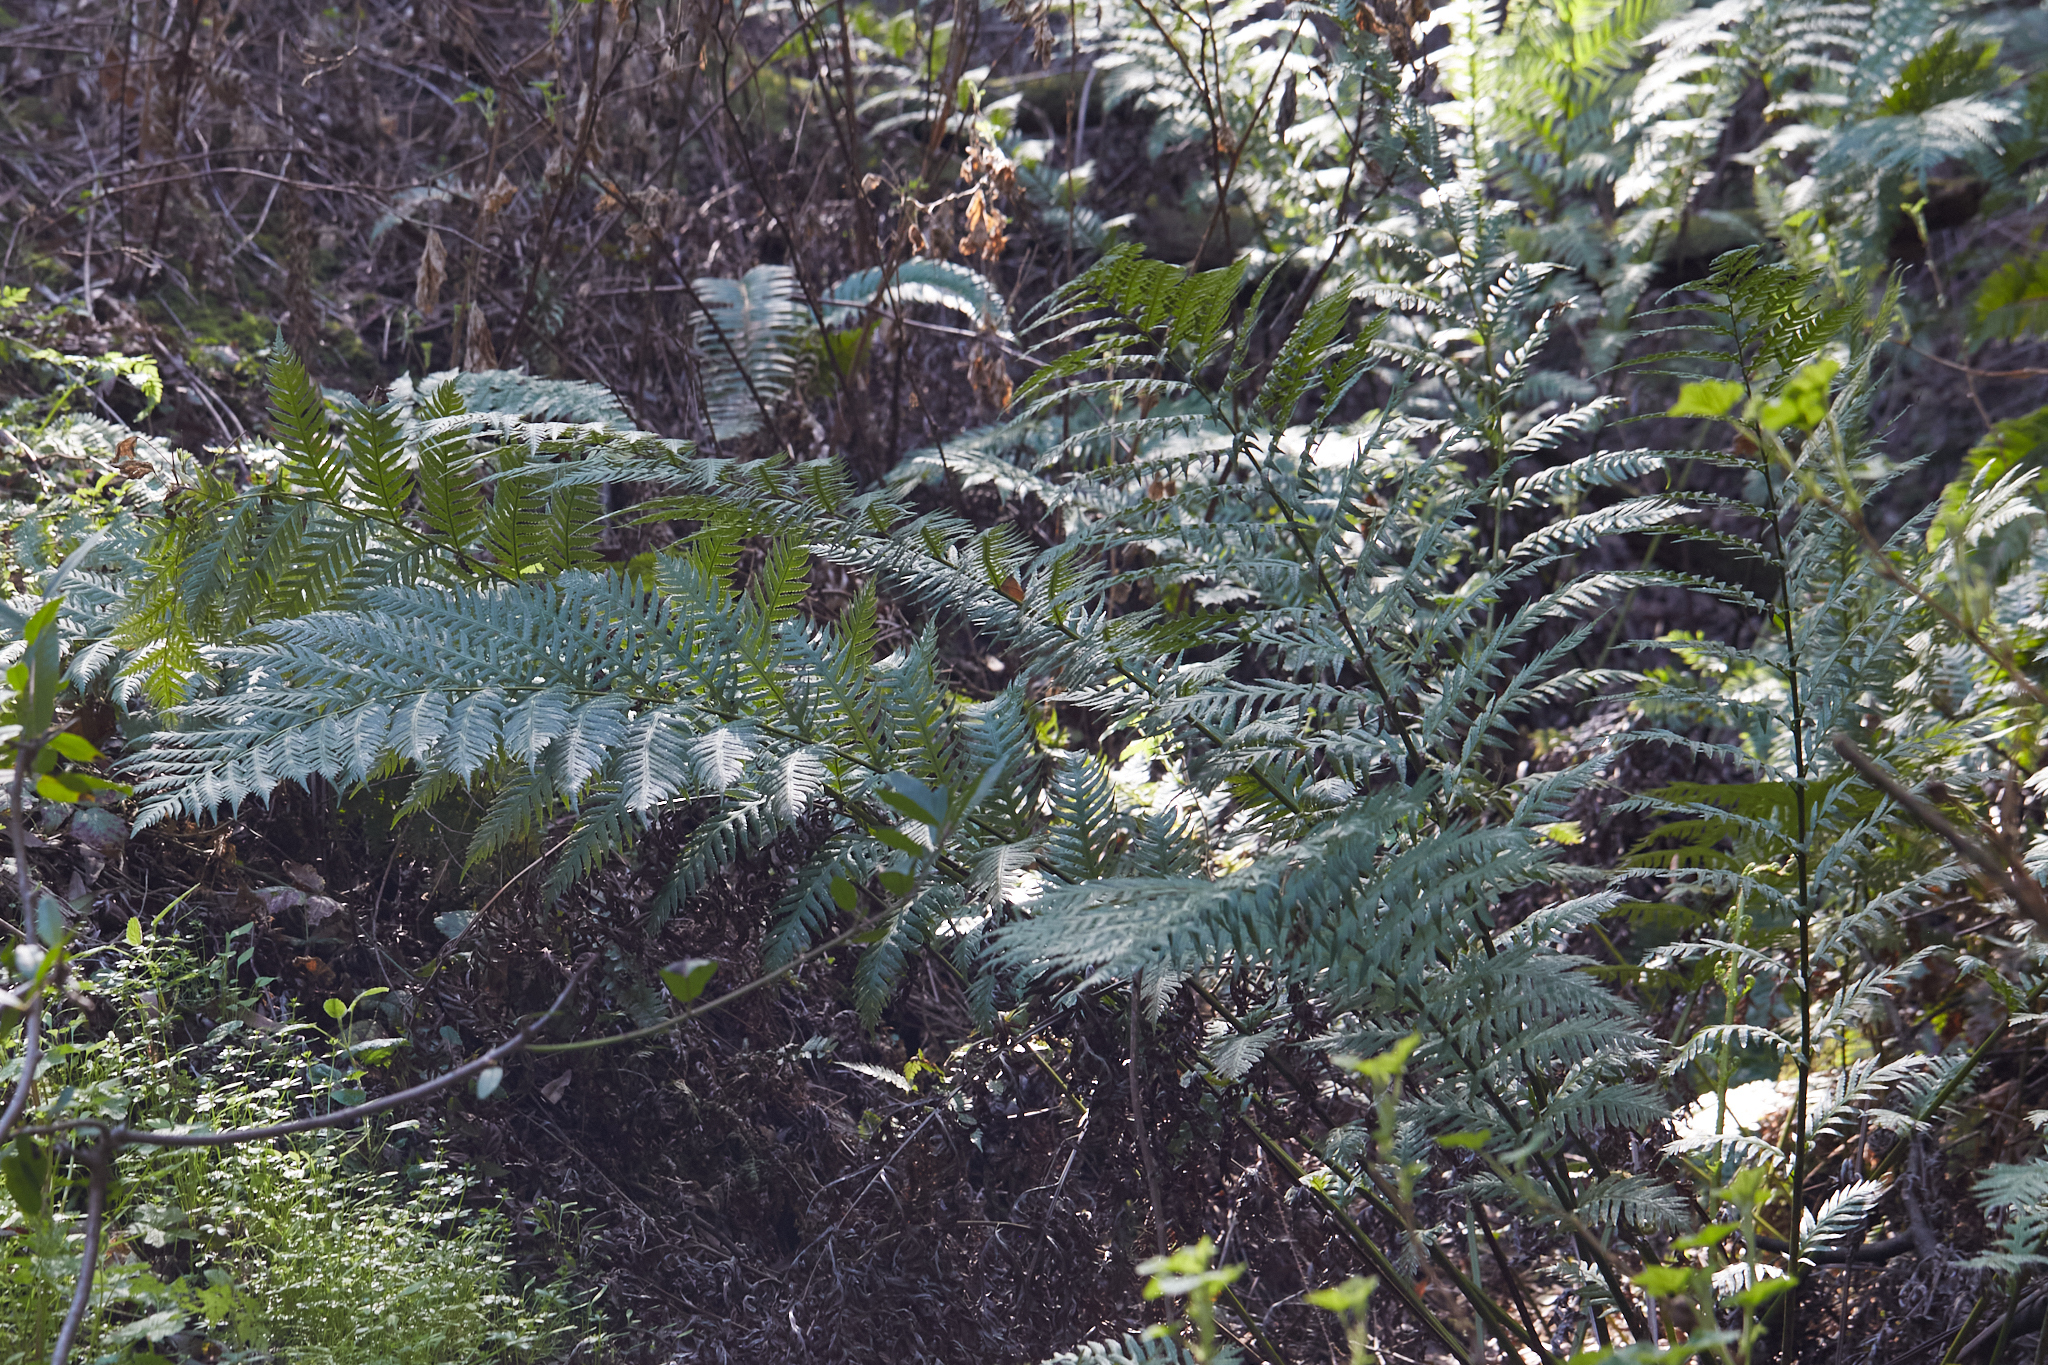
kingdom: Plantae
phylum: Tracheophyta
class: Polypodiopsida
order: Polypodiales
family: Blechnaceae
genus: Woodwardia
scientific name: Woodwardia fimbriata
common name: Giant chain fern
